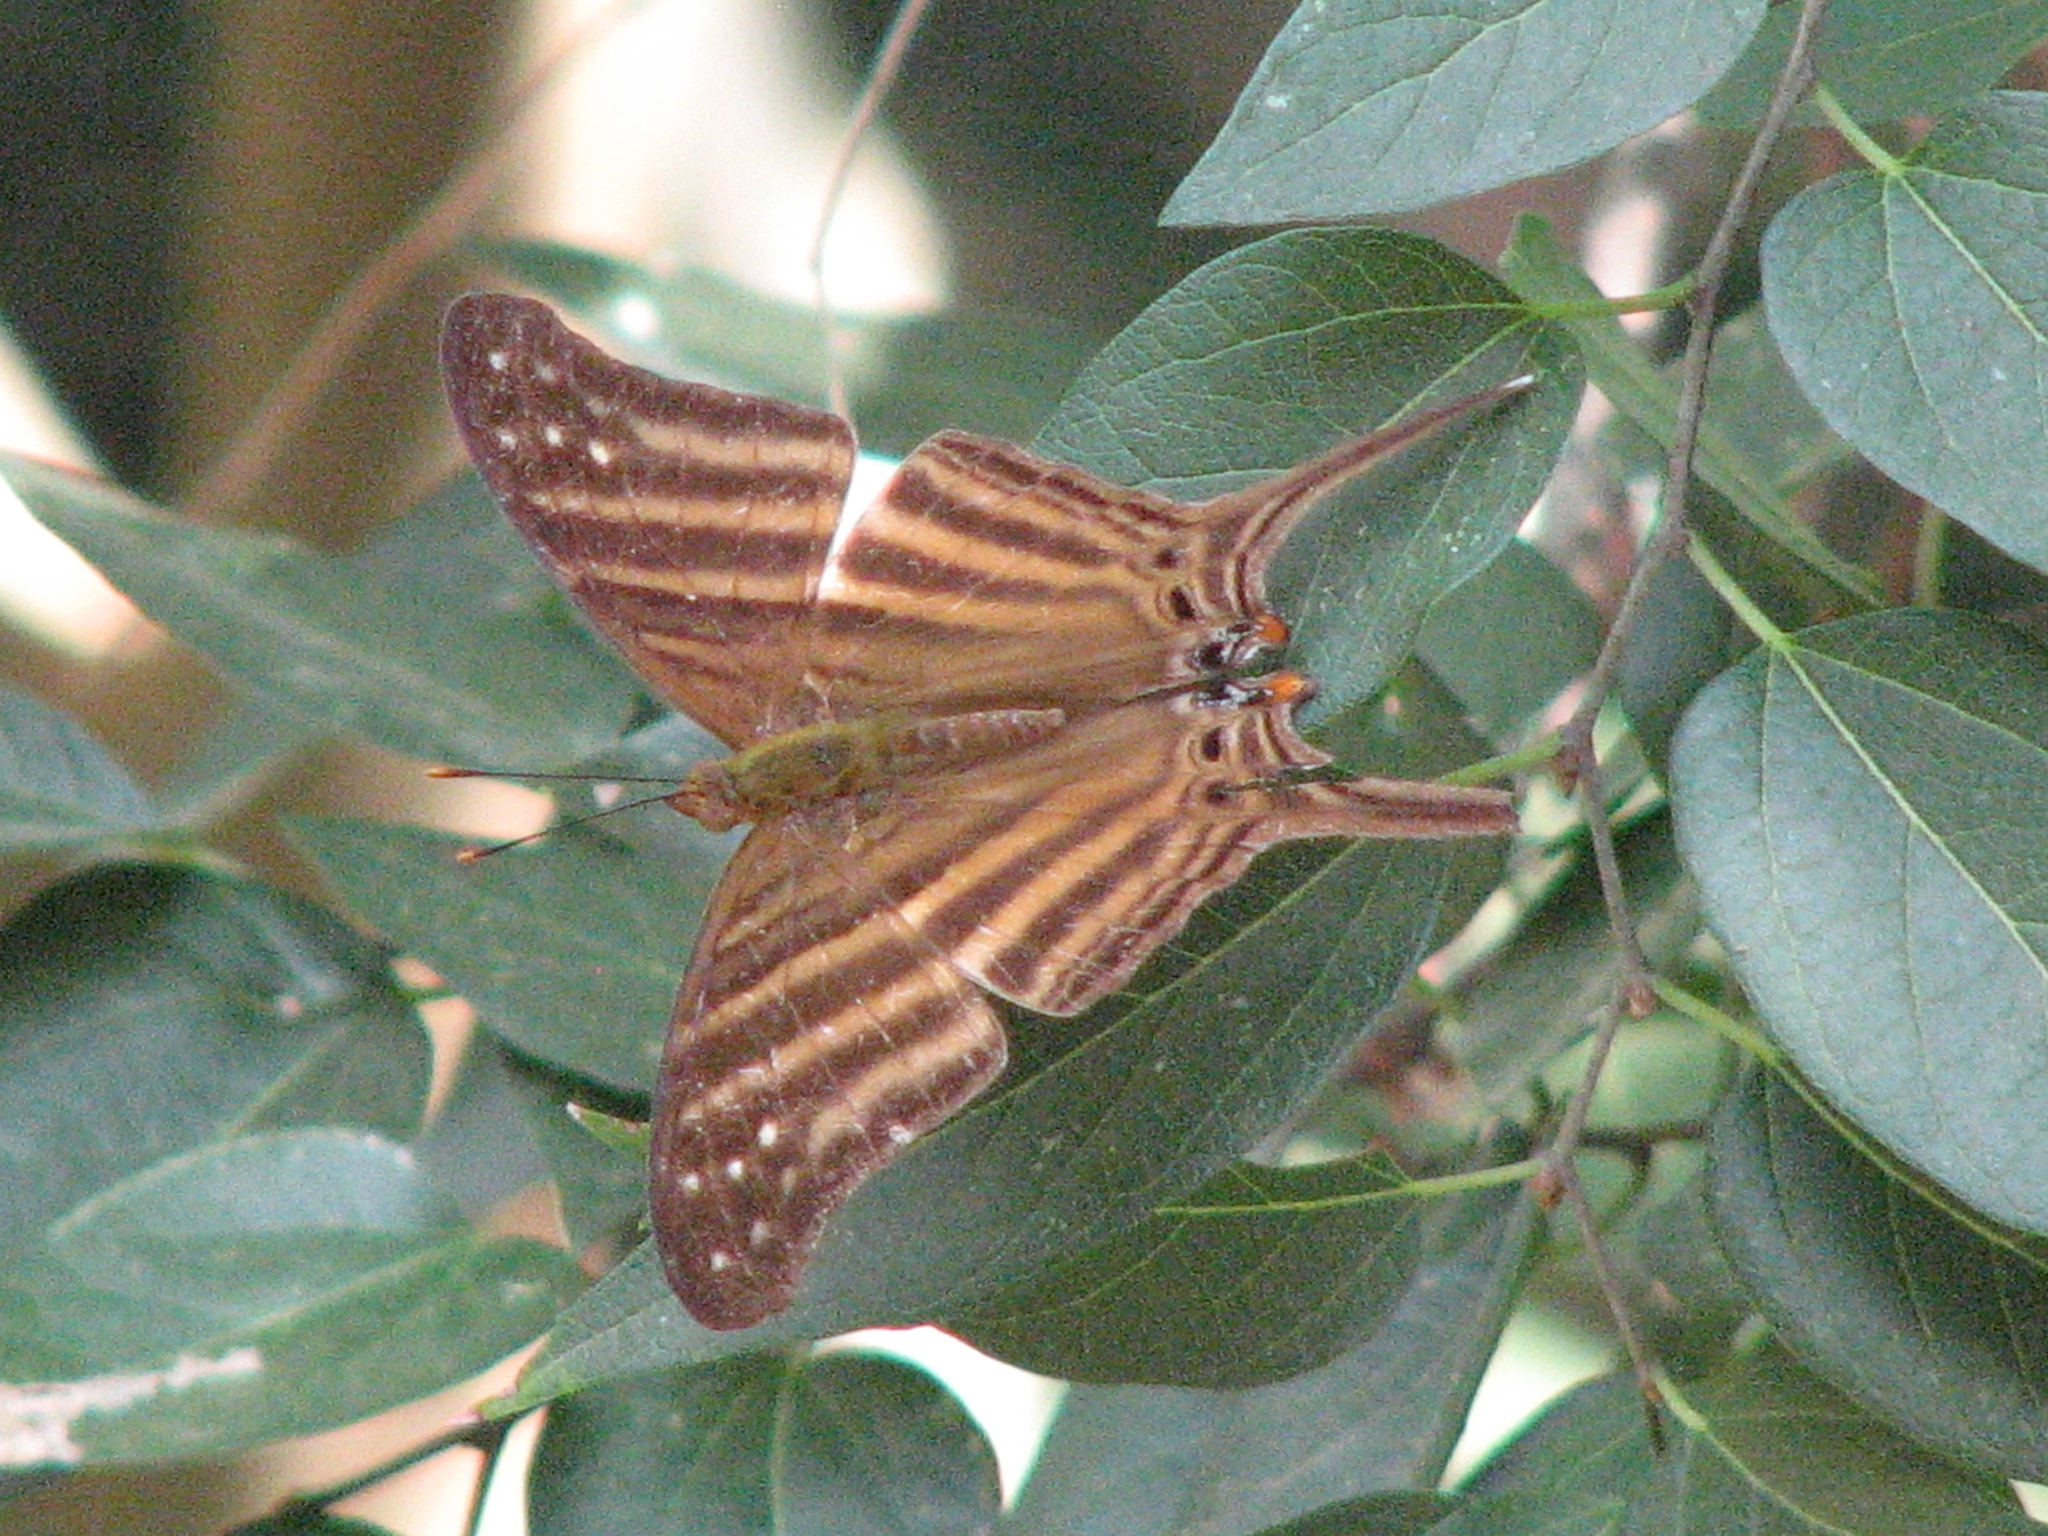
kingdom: Animalia
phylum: Arthropoda
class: Insecta
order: Lepidoptera
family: Nymphalidae
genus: Marpesia
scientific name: Marpesia chiron
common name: Many-banded daggerwing
